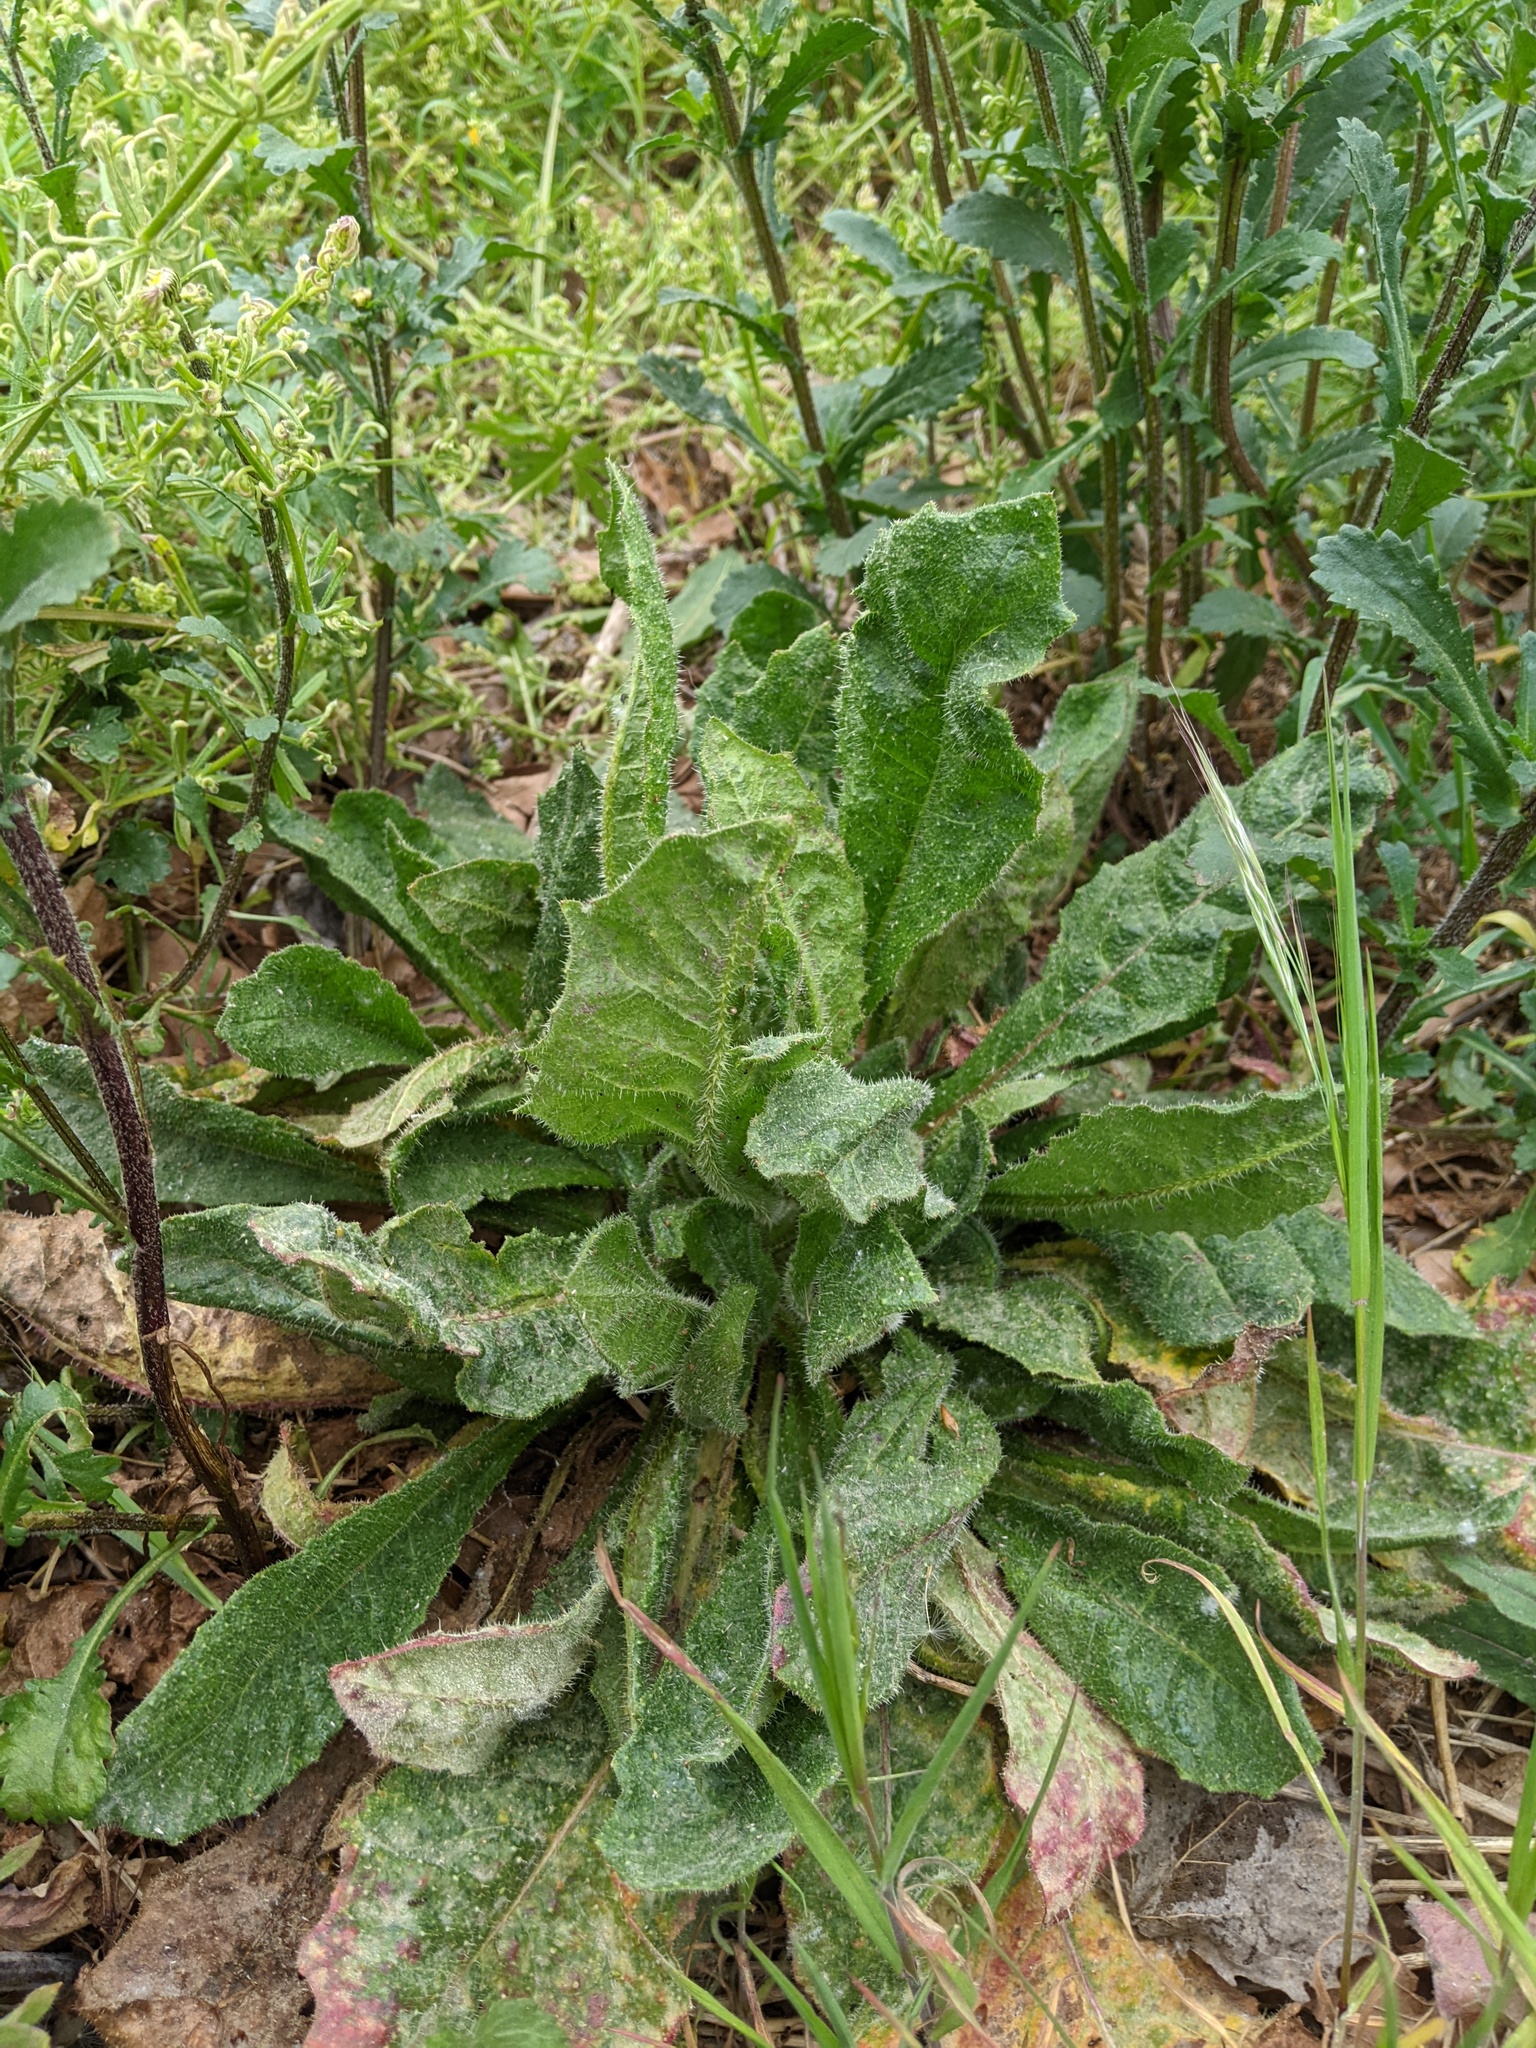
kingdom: Plantae
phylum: Tracheophyta
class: Magnoliopsida
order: Asterales
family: Asteraceae
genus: Helminthotheca
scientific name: Helminthotheca echioides
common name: Ox-tongue
